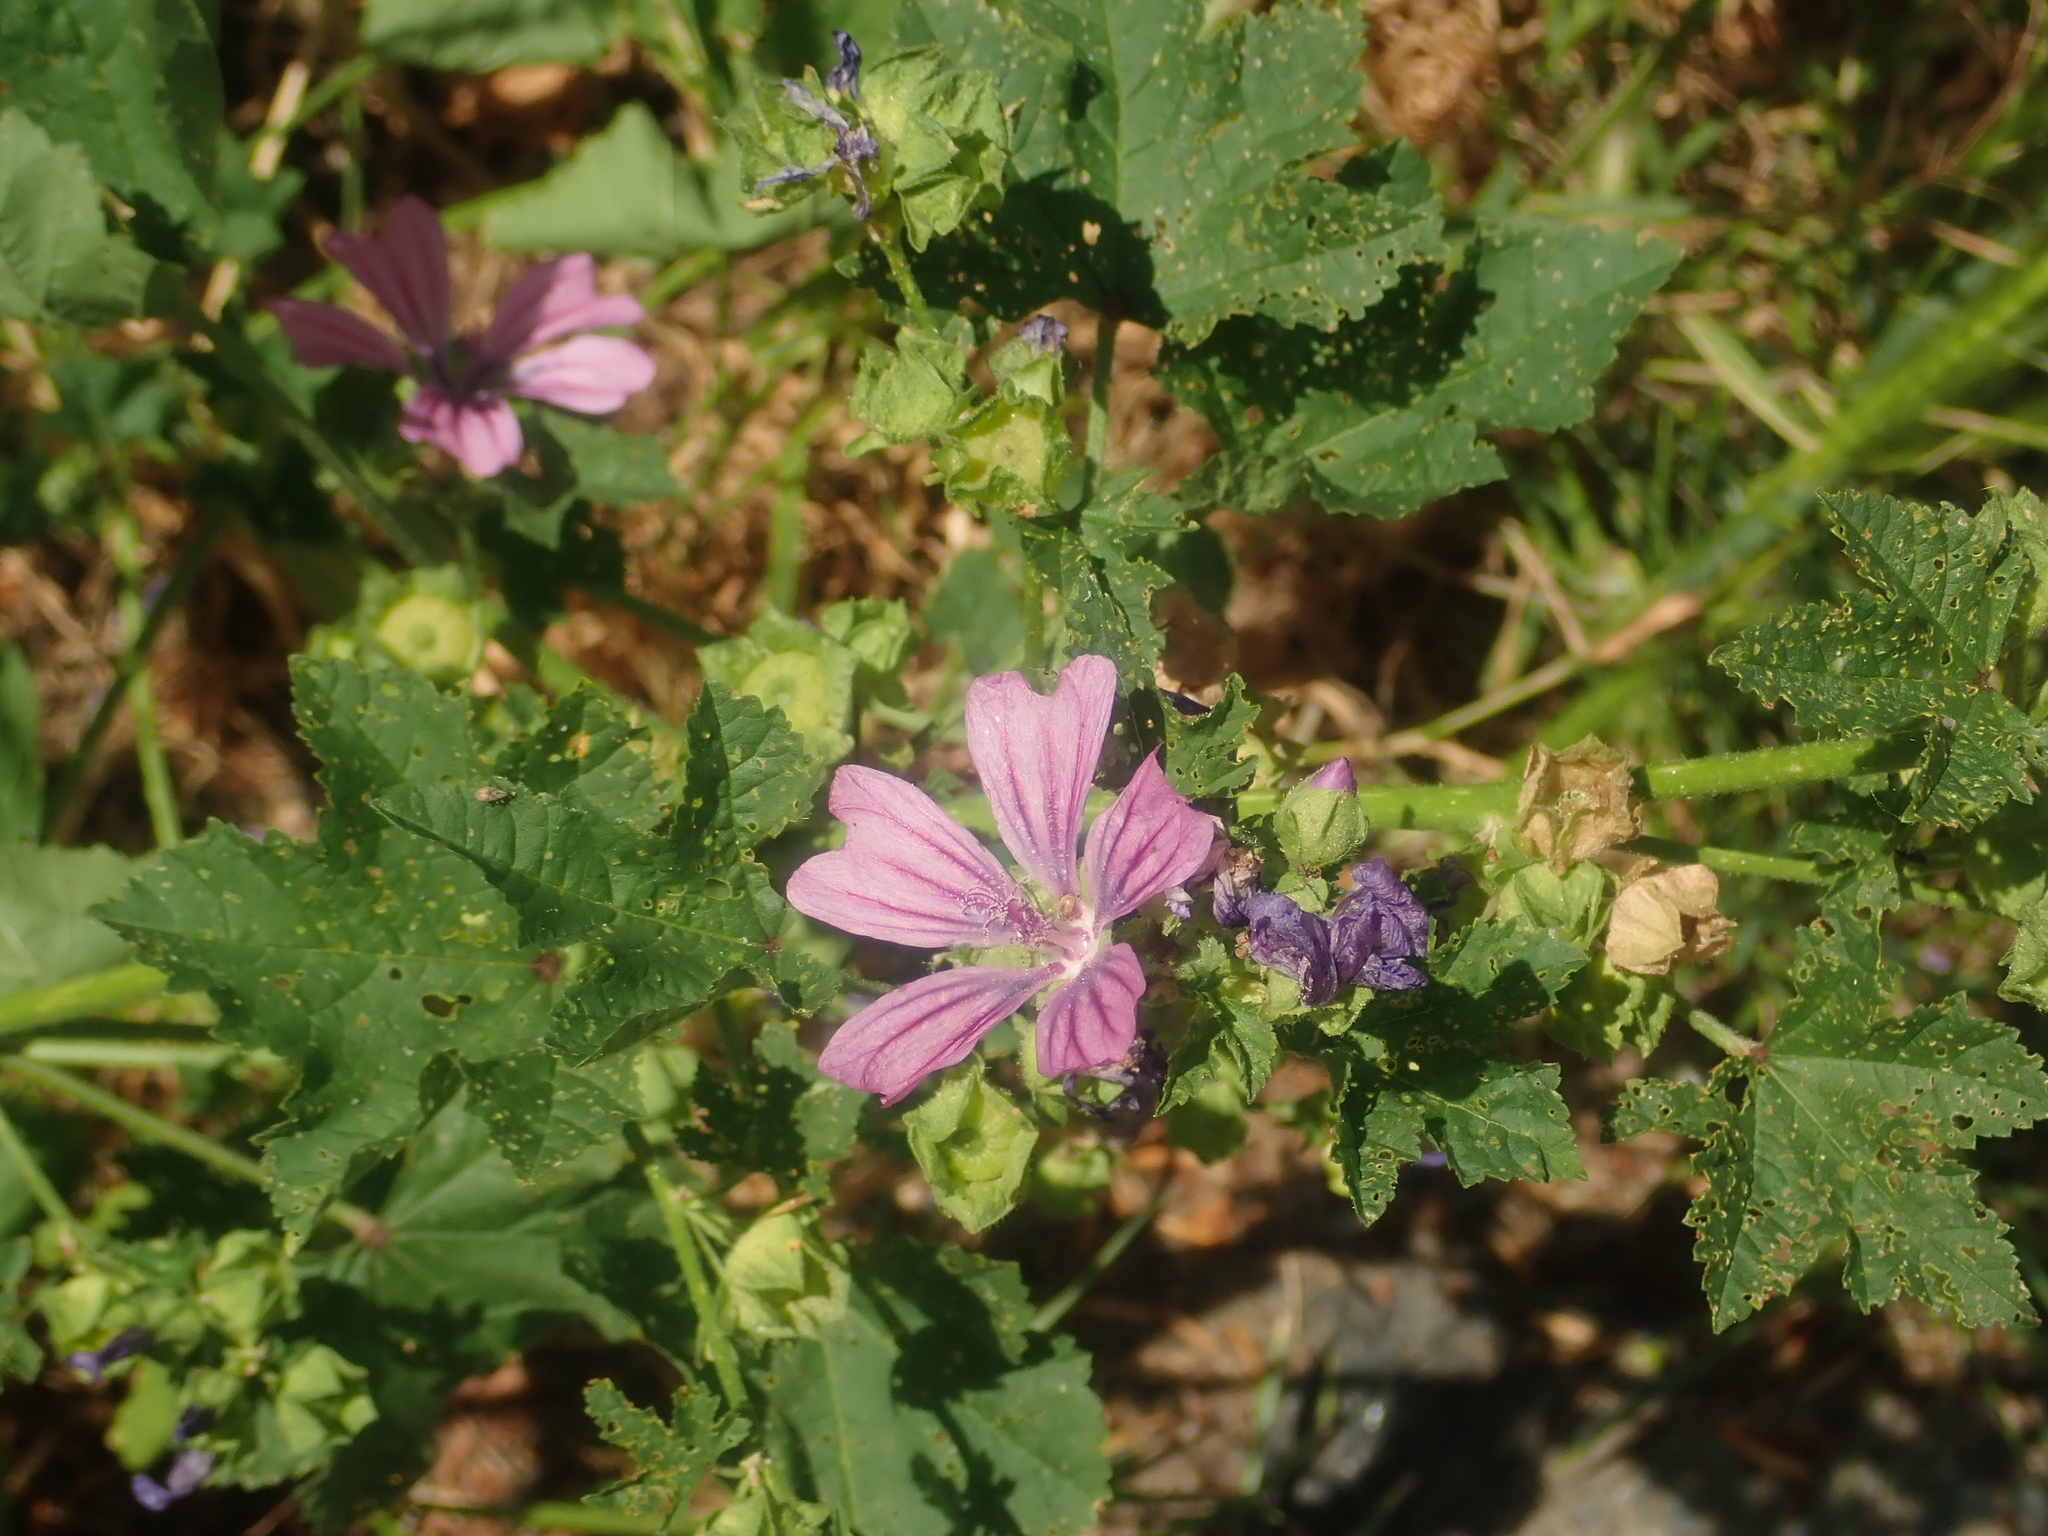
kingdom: Plantae
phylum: Tracheophyta
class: Magnoliopsida
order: Malvales
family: Malvaceae
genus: Malva
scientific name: Malva sylvestris
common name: Common mallow
